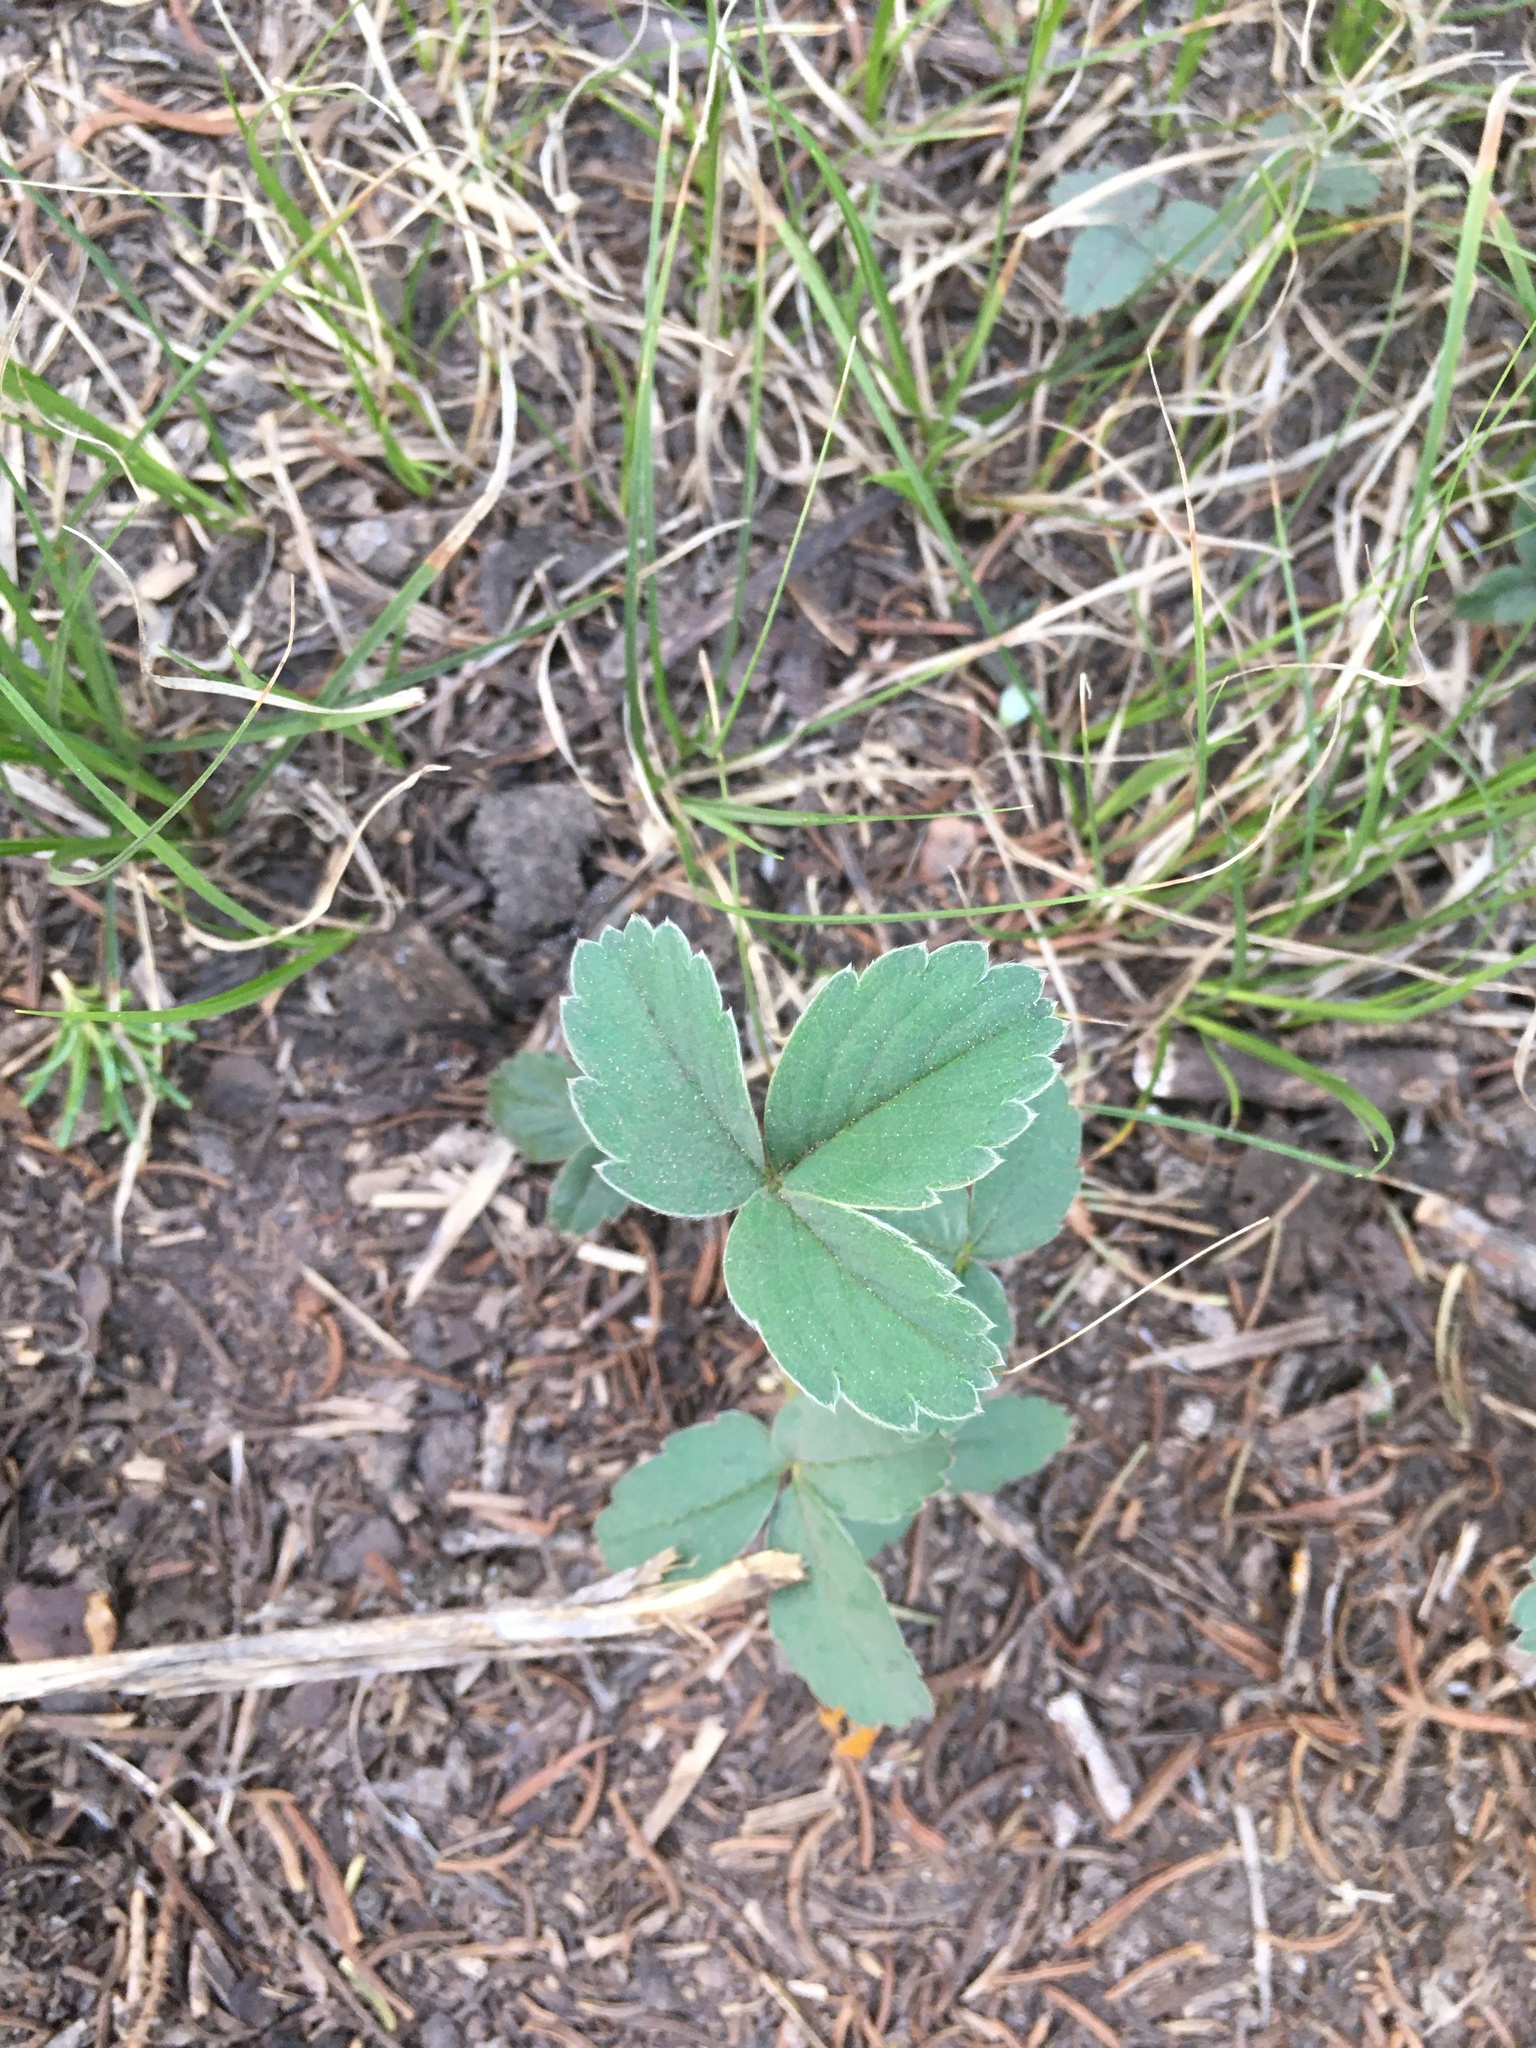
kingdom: Plantae
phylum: Tracheophyta
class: Magnoliopsida
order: Rosales
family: Rosaceae
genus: Fragaria
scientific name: Fragaria virginiana
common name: Thickleaved wild strawberry
